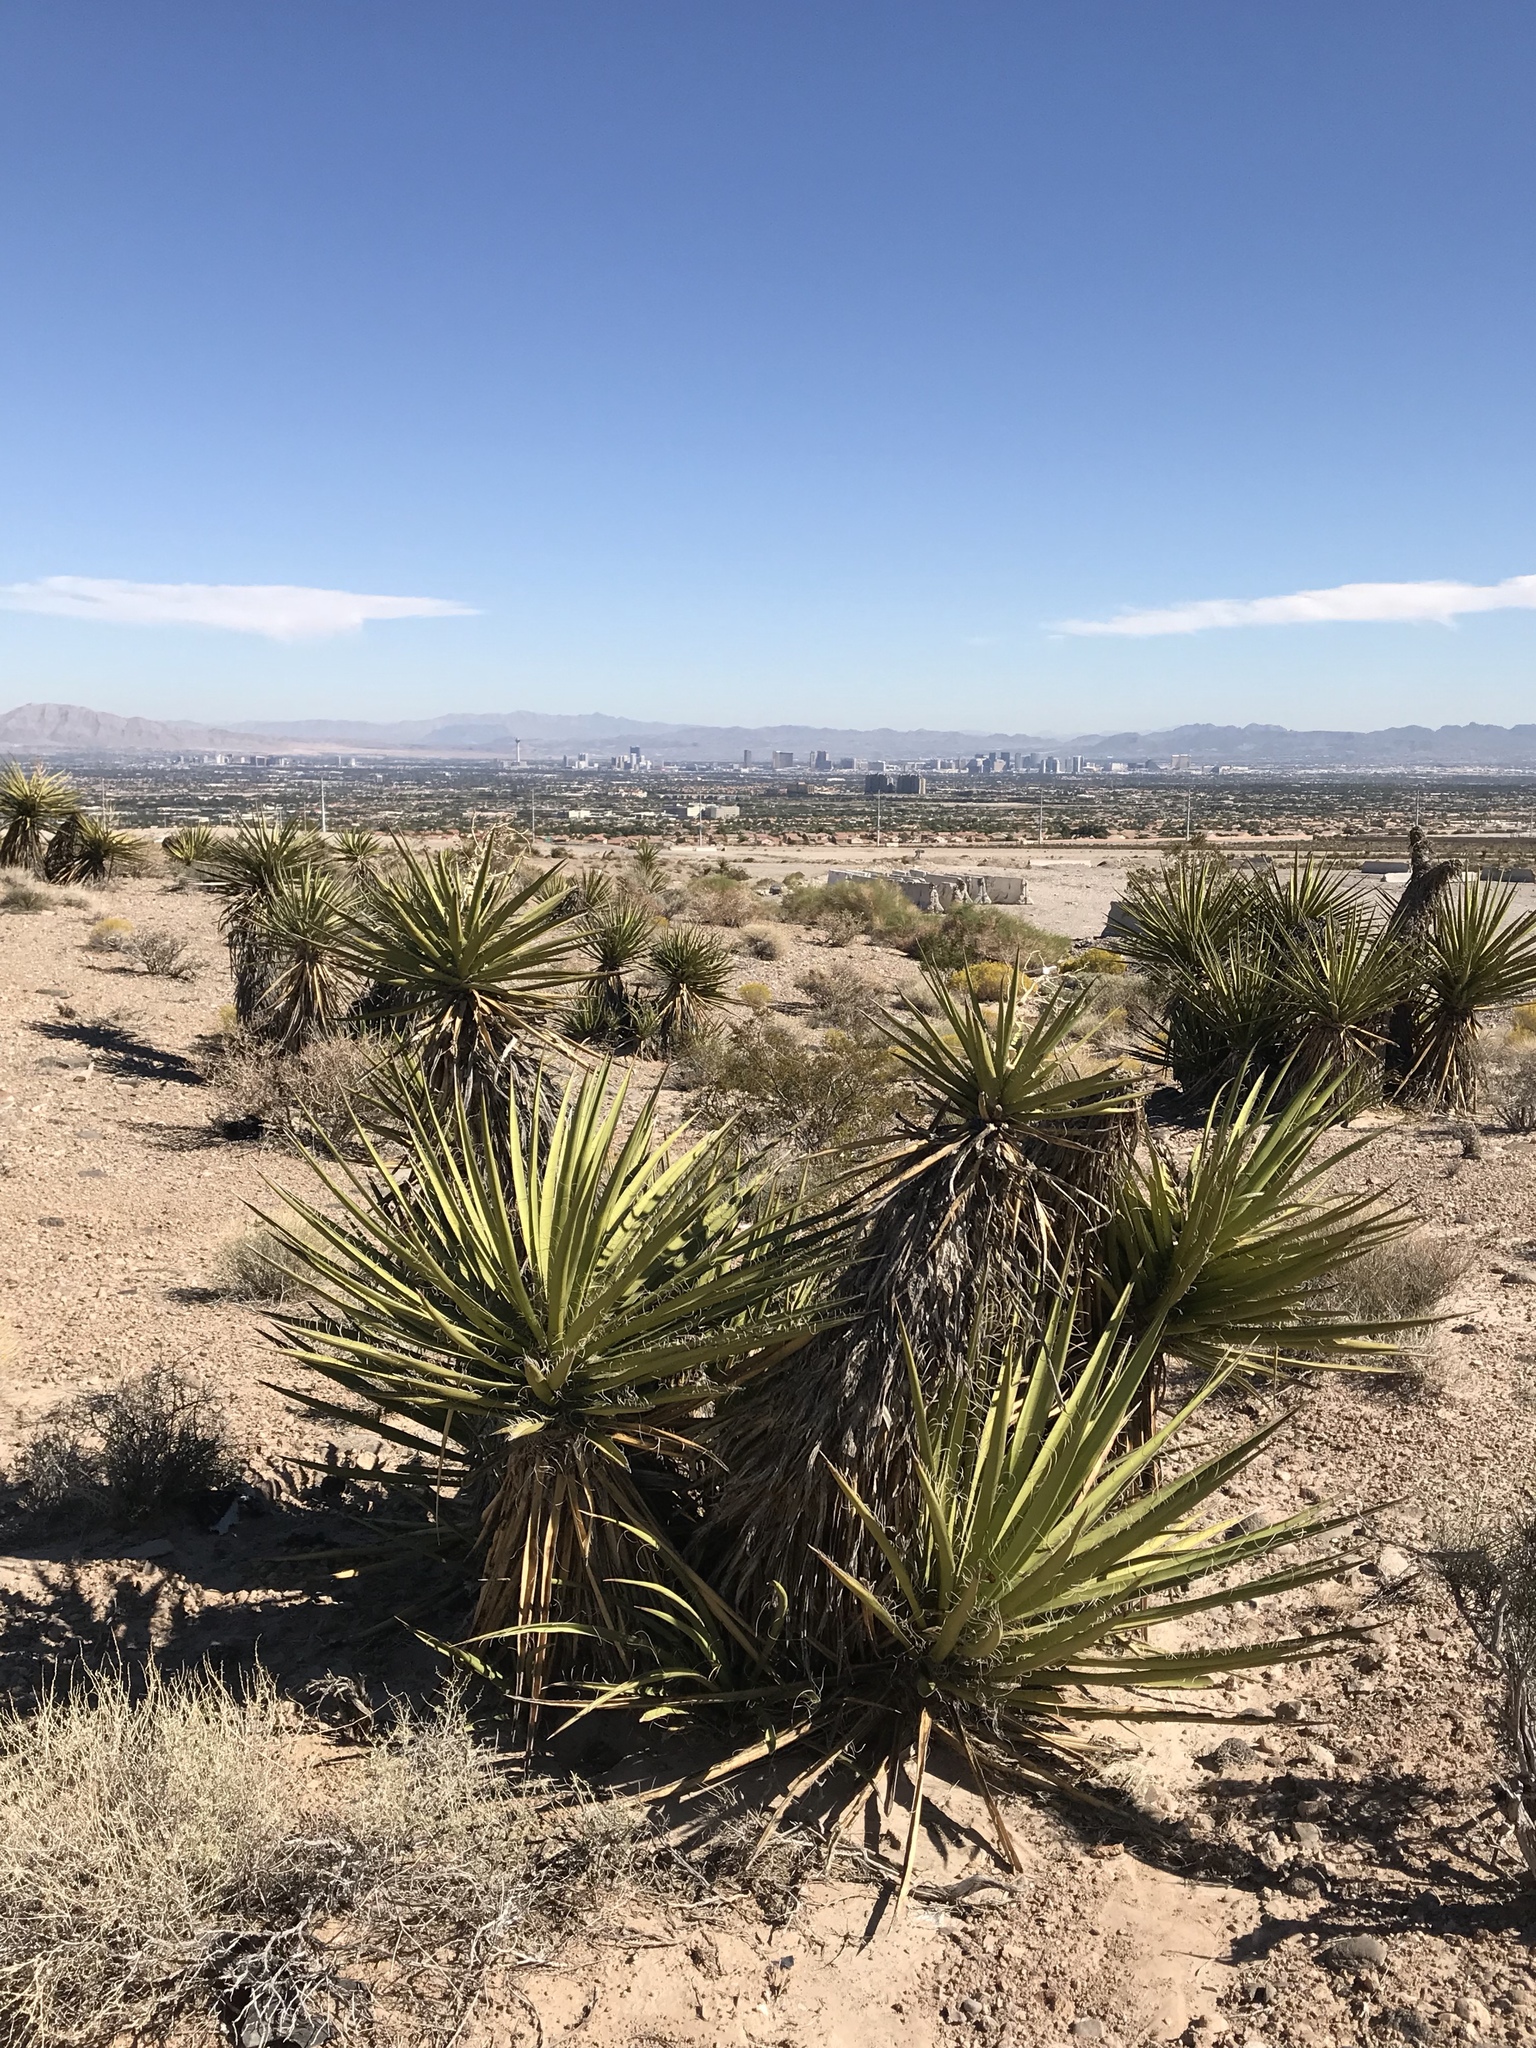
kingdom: Plantae
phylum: Tracheophyta
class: Liliopsida
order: Asparagales
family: Asparagaceae
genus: Yucca
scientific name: Yucca schidigera
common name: Mojave yucca
